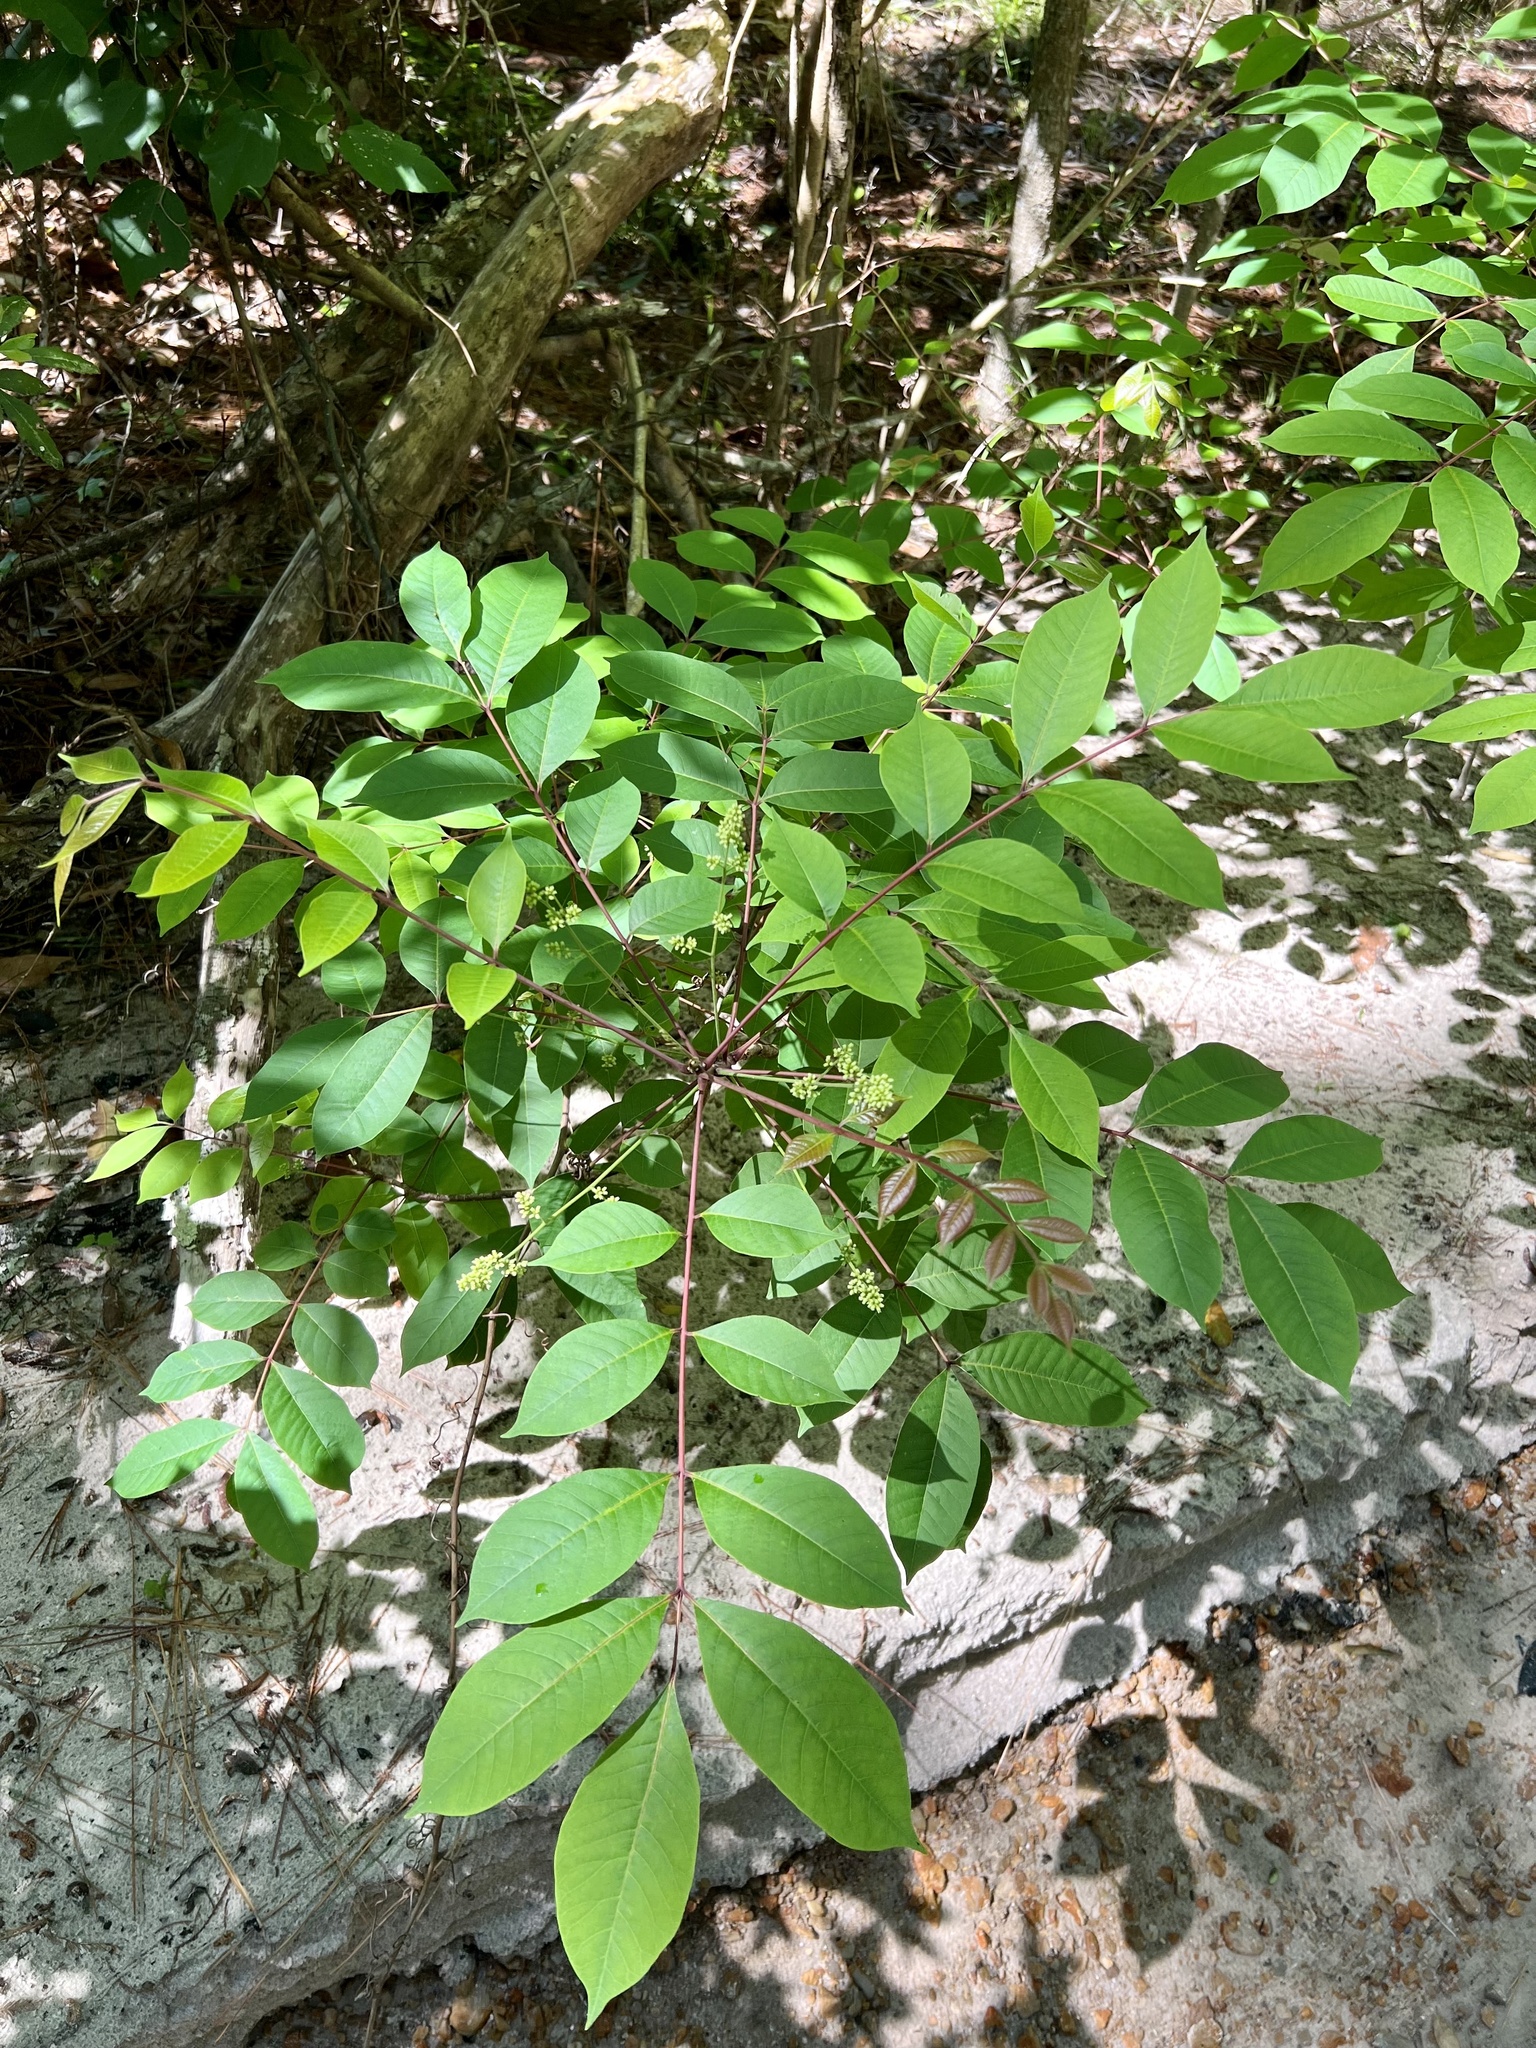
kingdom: Plantae
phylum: Tracheophyta
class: Magnoliopsida
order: Sapindales
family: Anacardiaceae
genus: Toxicodendron
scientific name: Toxicodendron vernix
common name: Poison sumac
